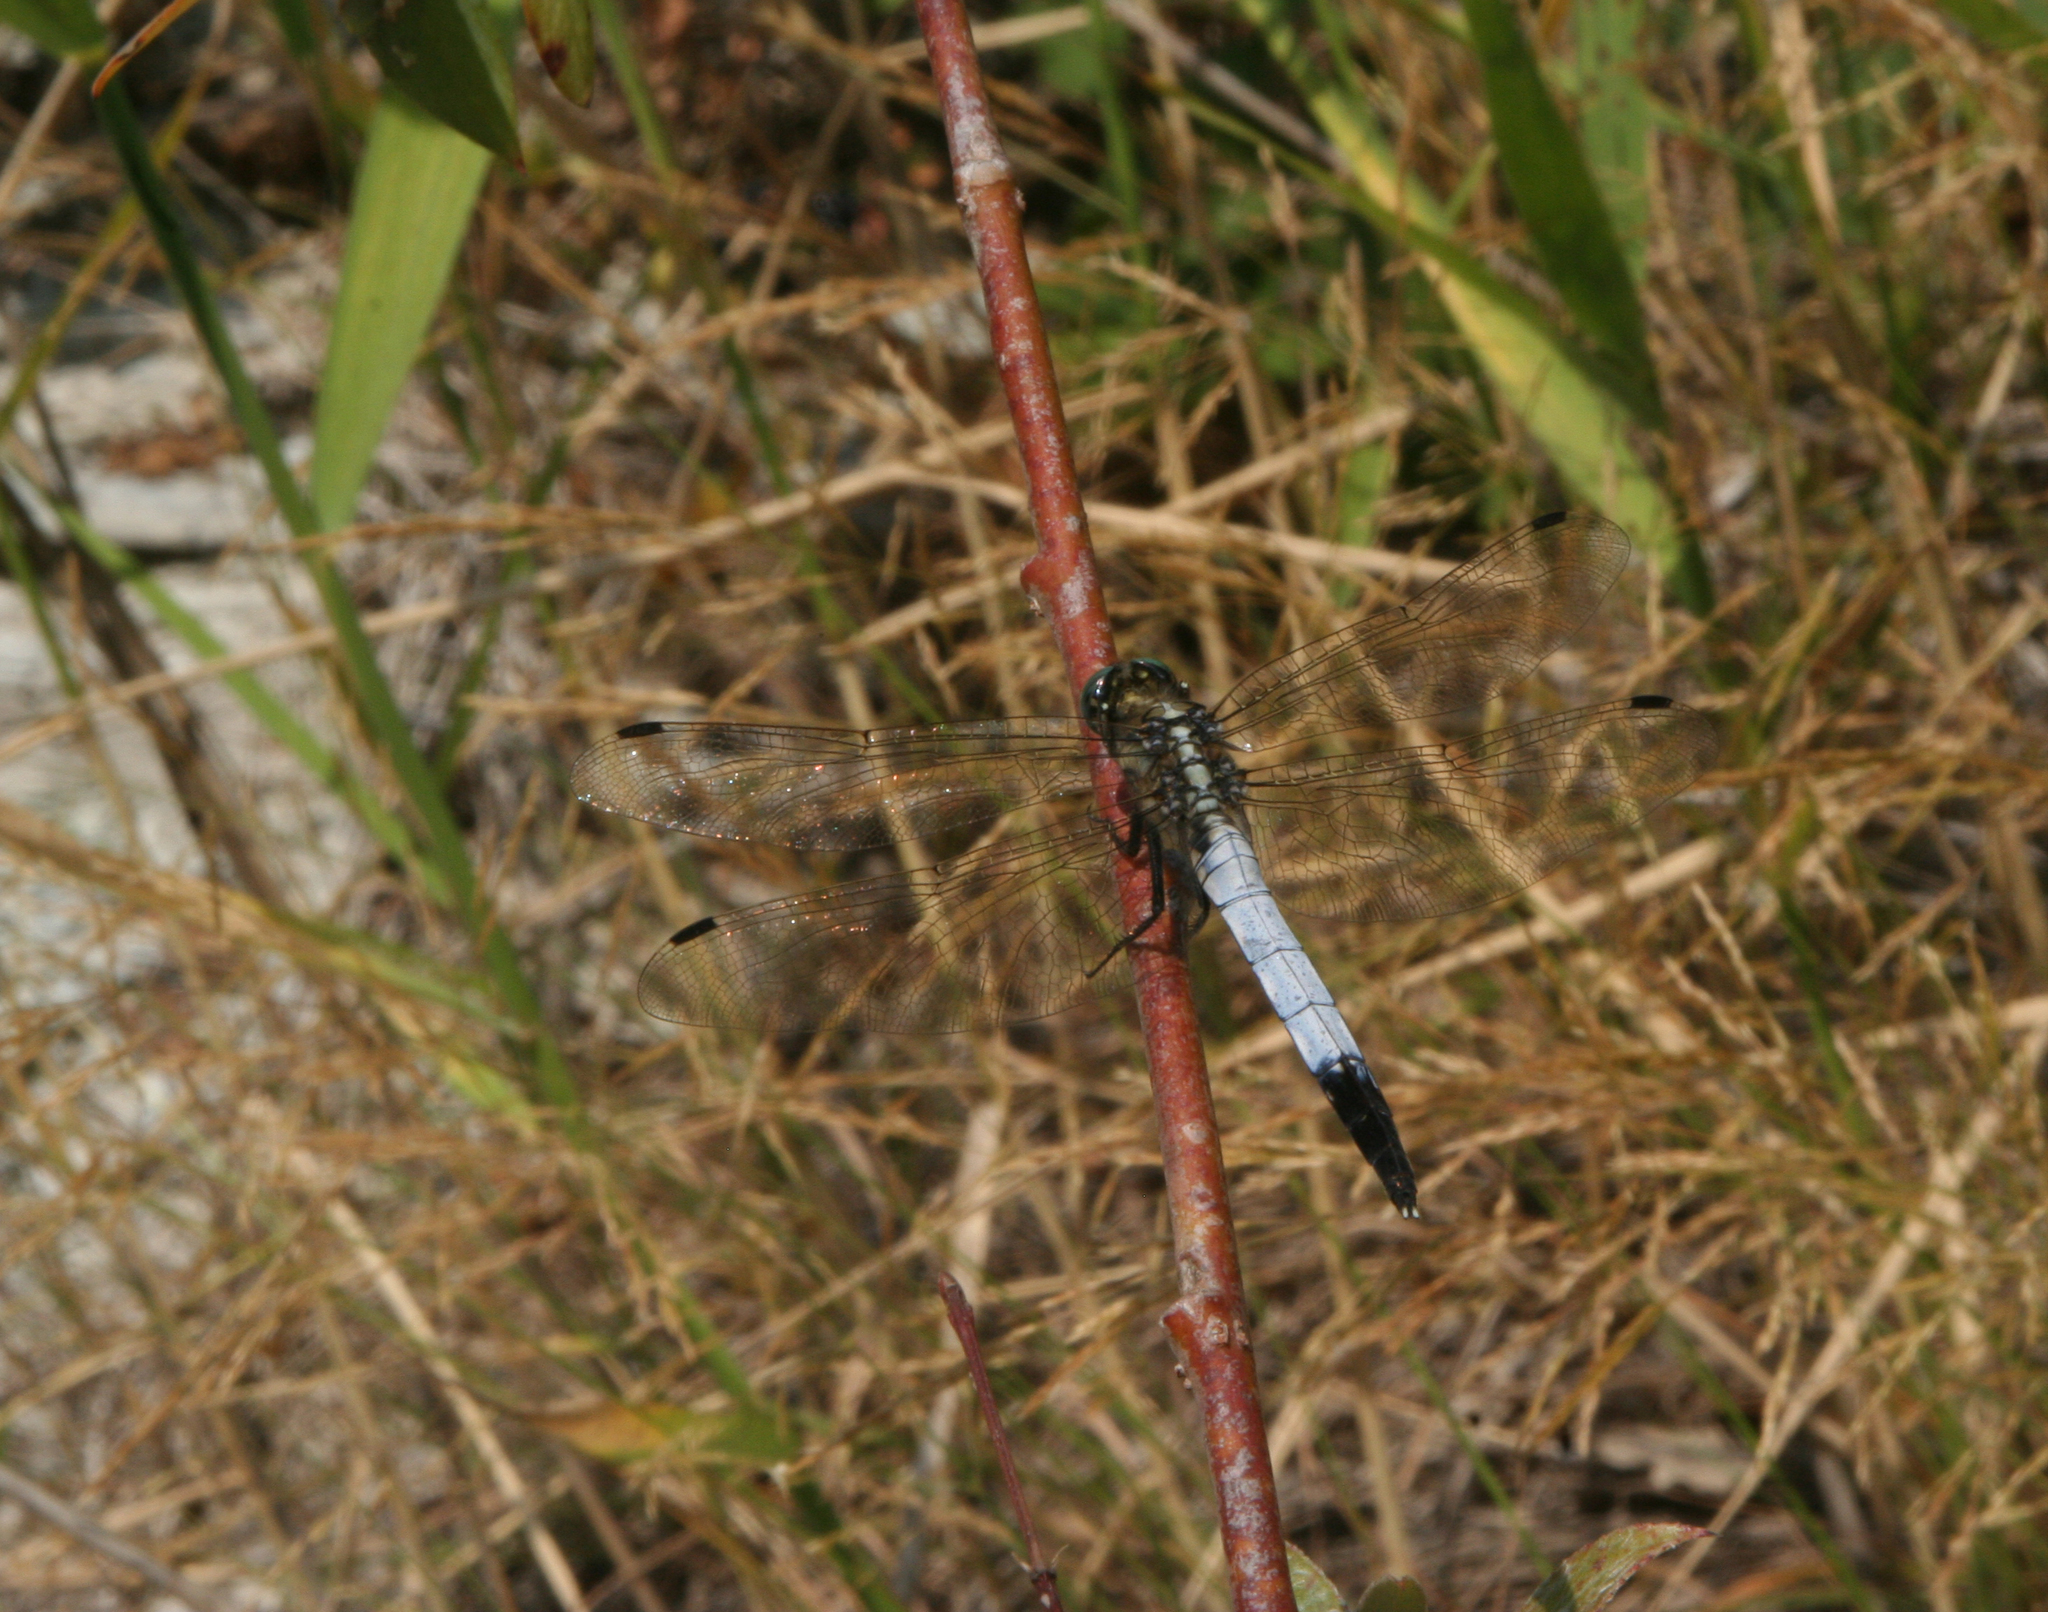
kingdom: Animalia
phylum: Arthropoda
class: Insecta
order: Odonata
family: Libellulidae
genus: Orthetrum
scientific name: Orthetrum albistylum
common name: White-tailed skimmer
